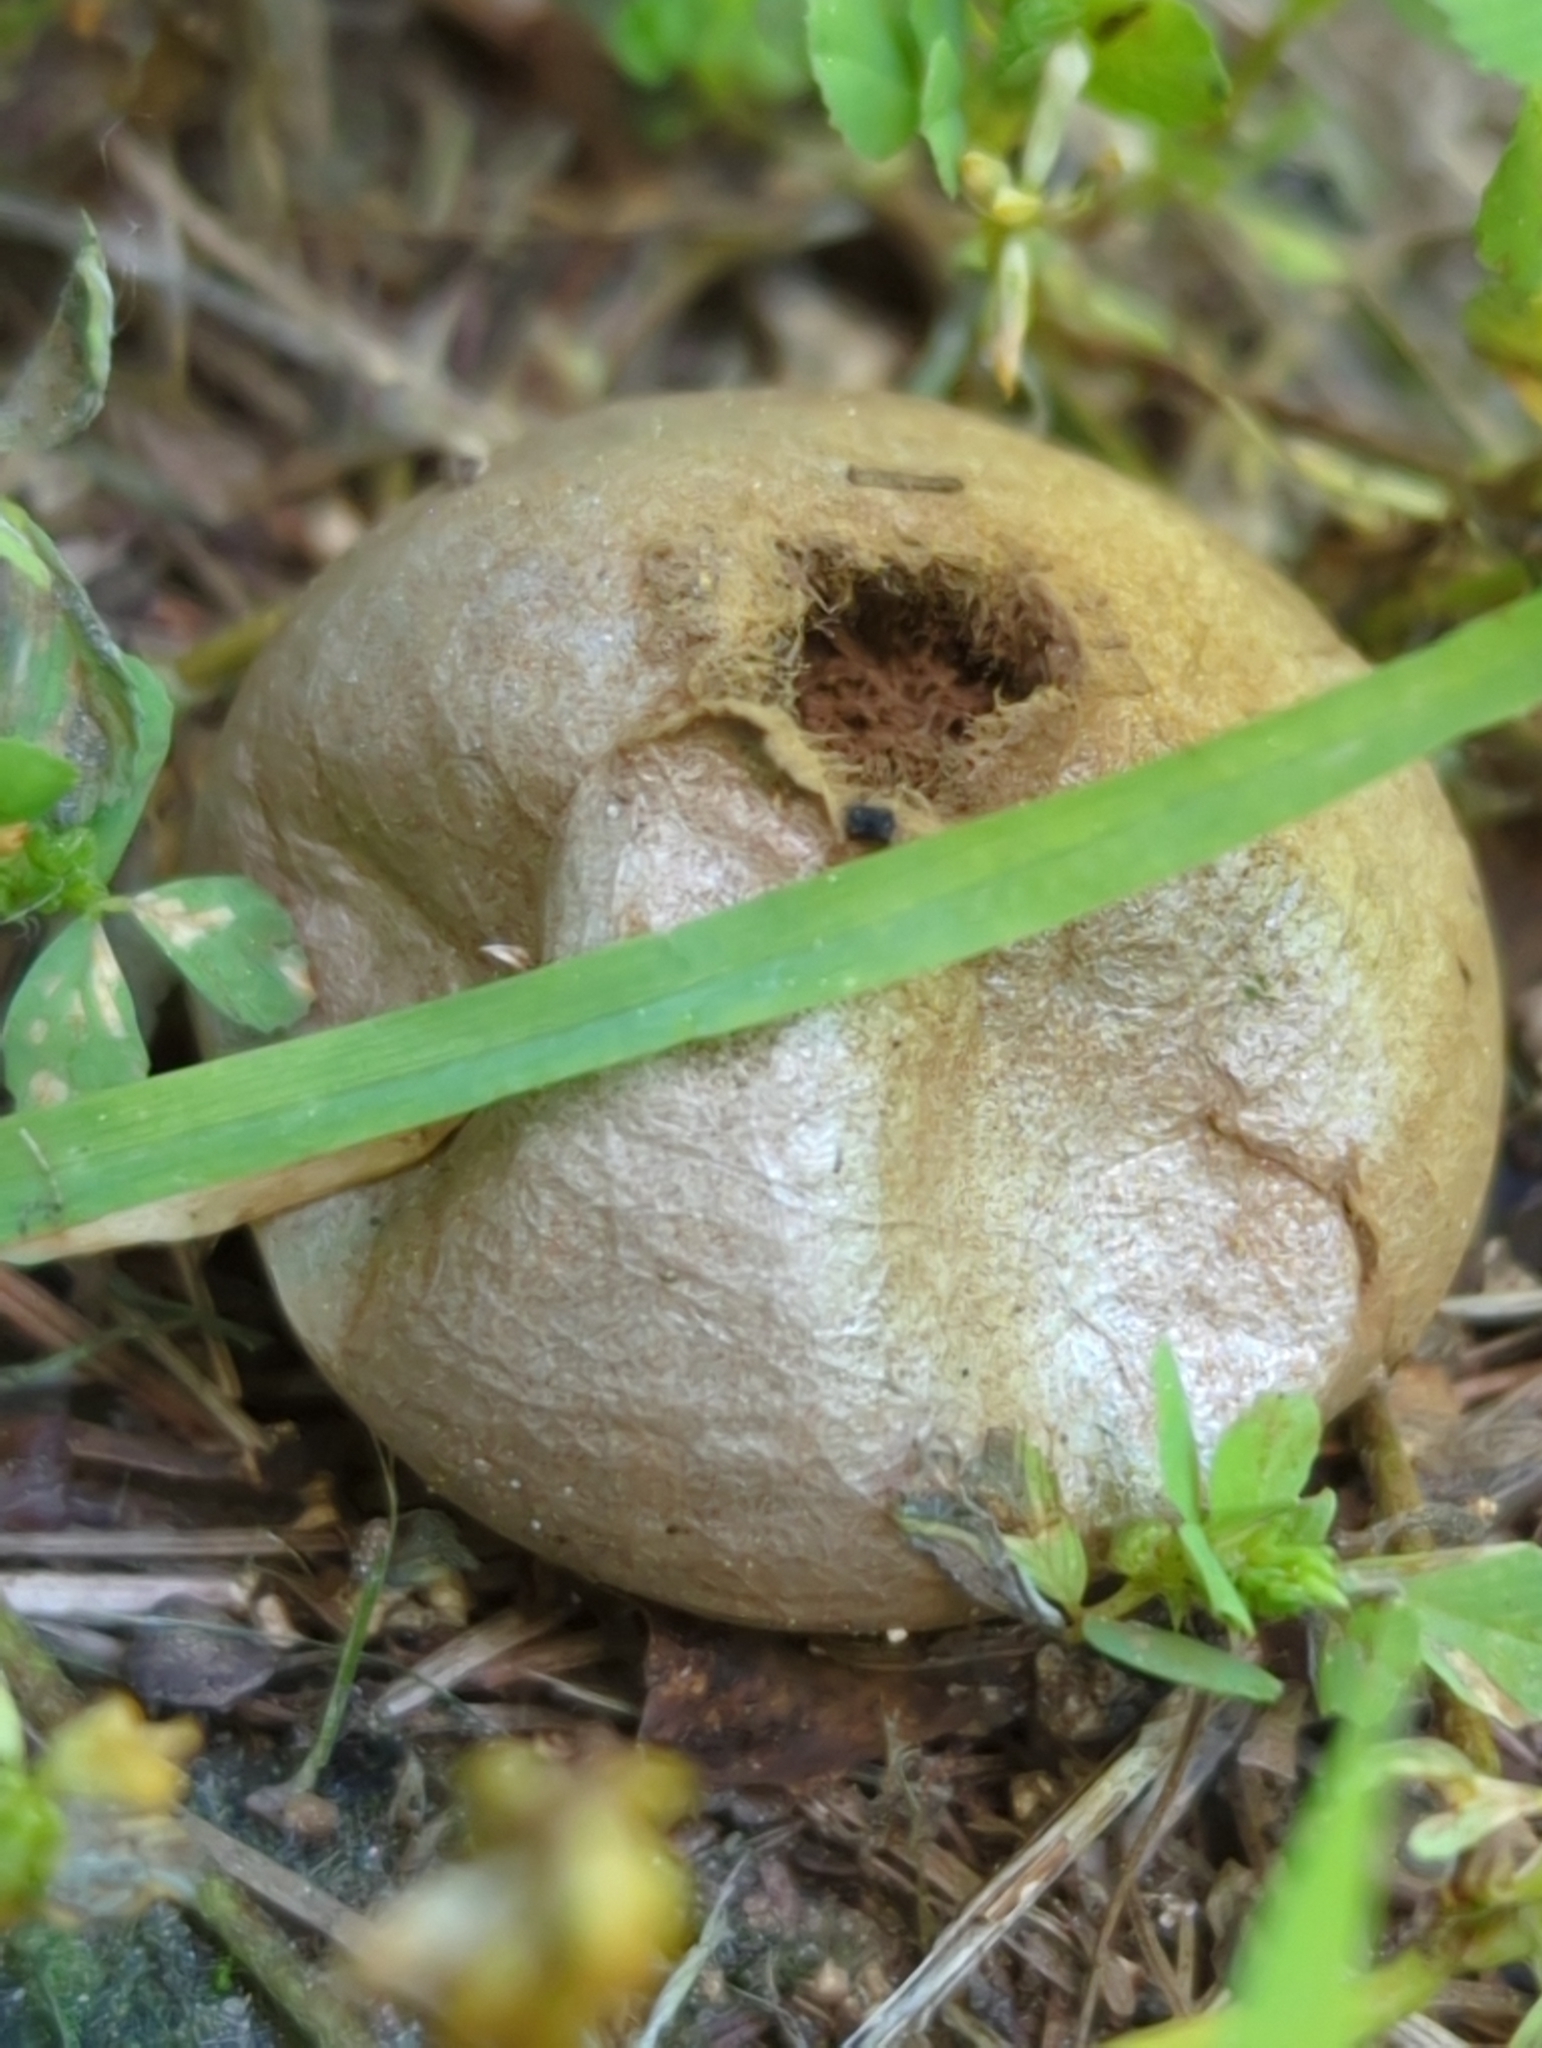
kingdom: Fungi
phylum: Basidiomycota
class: Agaricomycetes
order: Agaricales
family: Agaricaceae
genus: Lycoperdon
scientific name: Lycoperdon marginatum
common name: Peeling puffball
